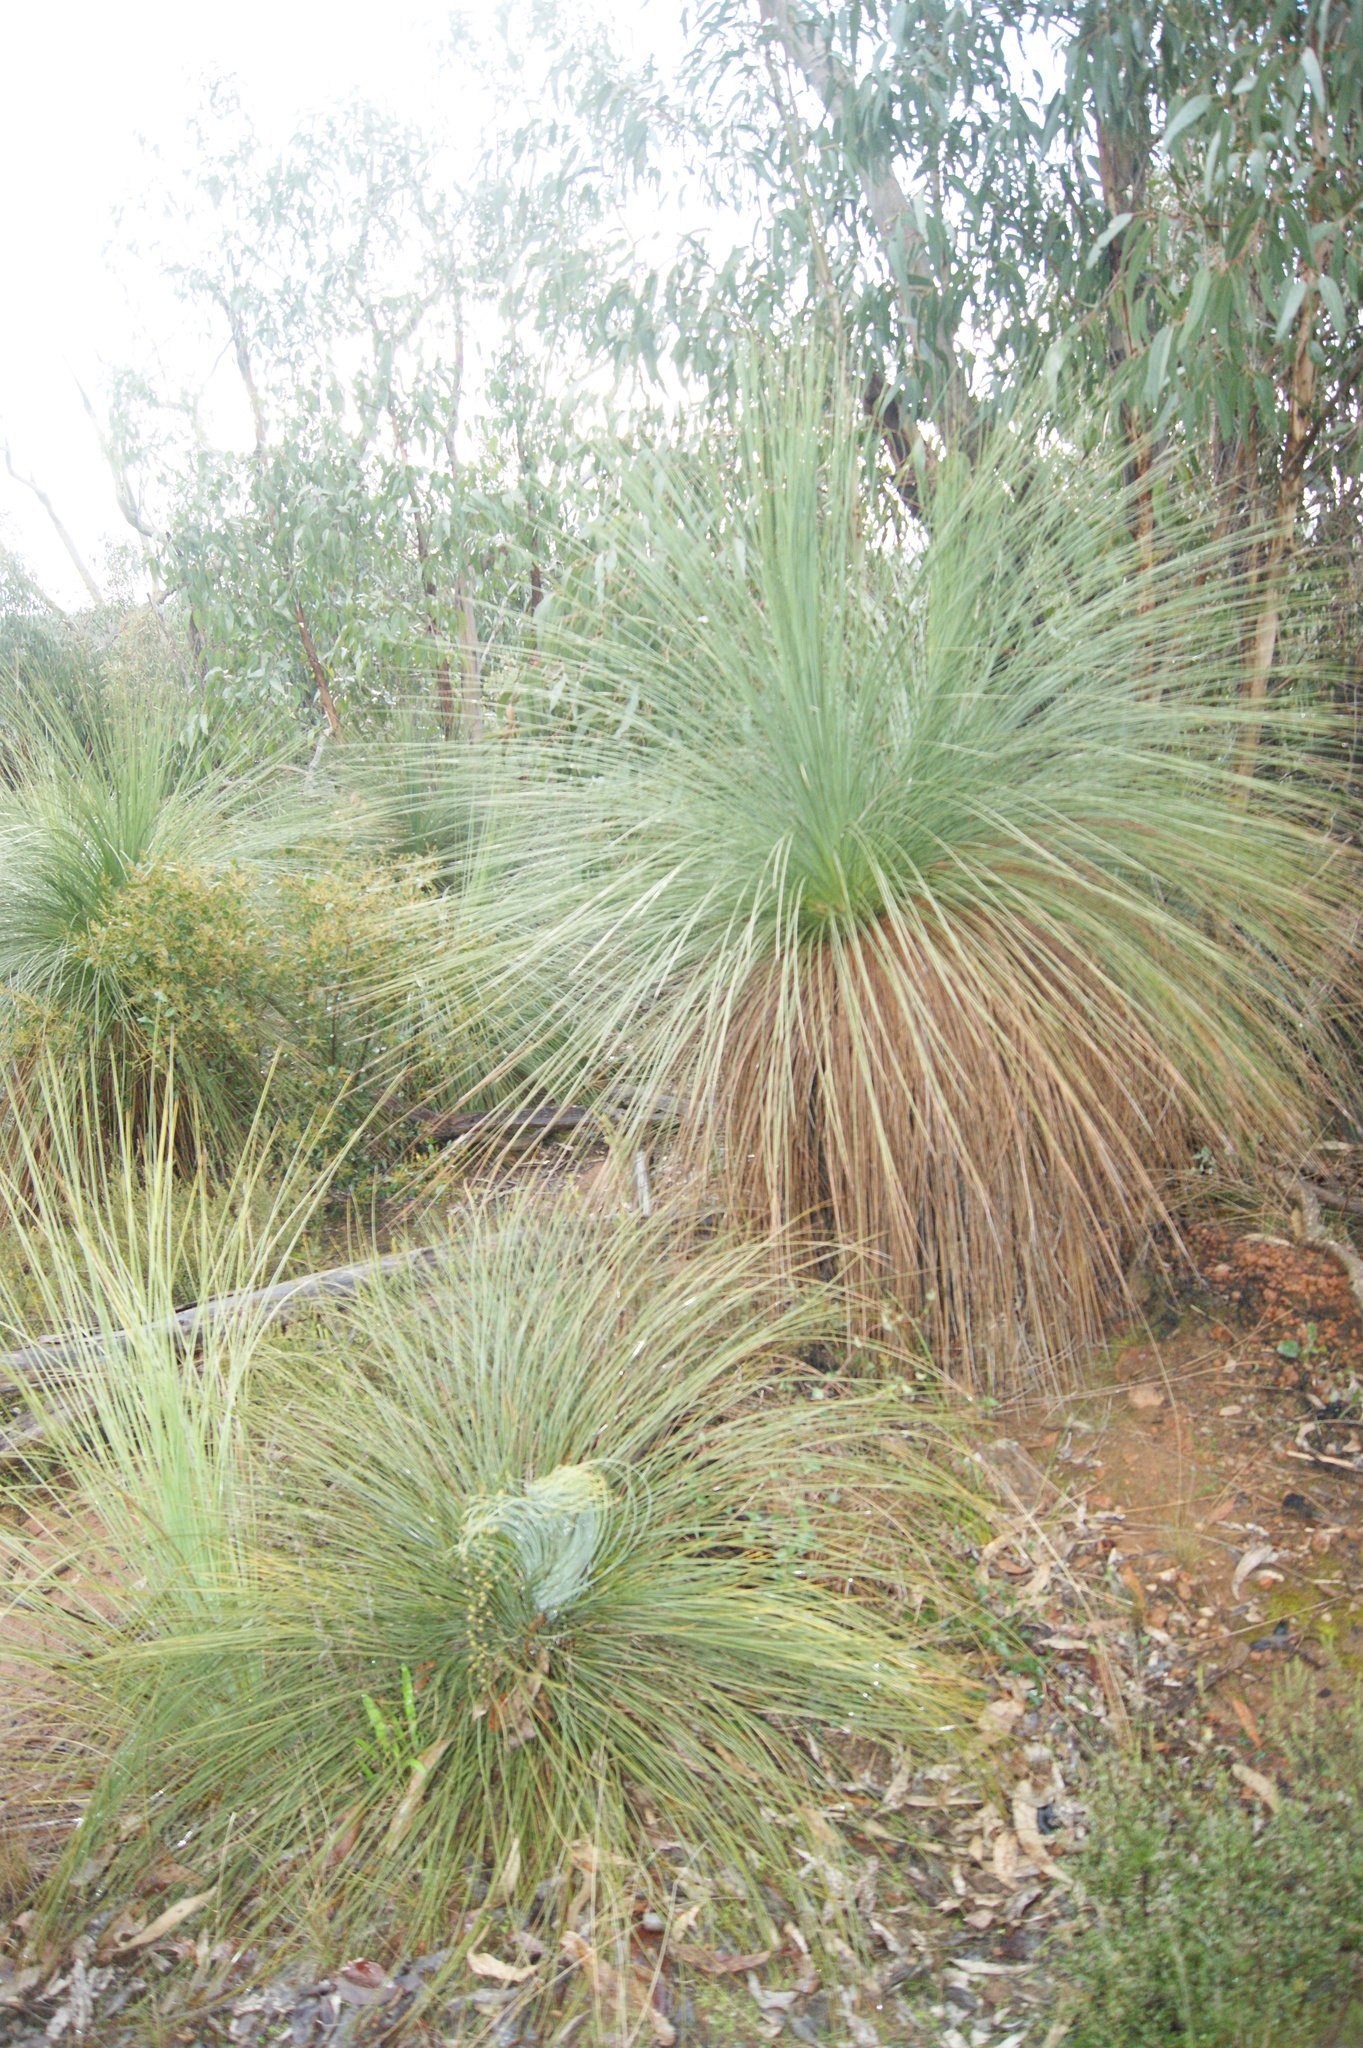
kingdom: Plantae
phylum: Tracheophyta
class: Liliopsida
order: Asparagales
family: Asphodelaceae
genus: Xanthorrhoea
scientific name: Xanthorrhoea australis
